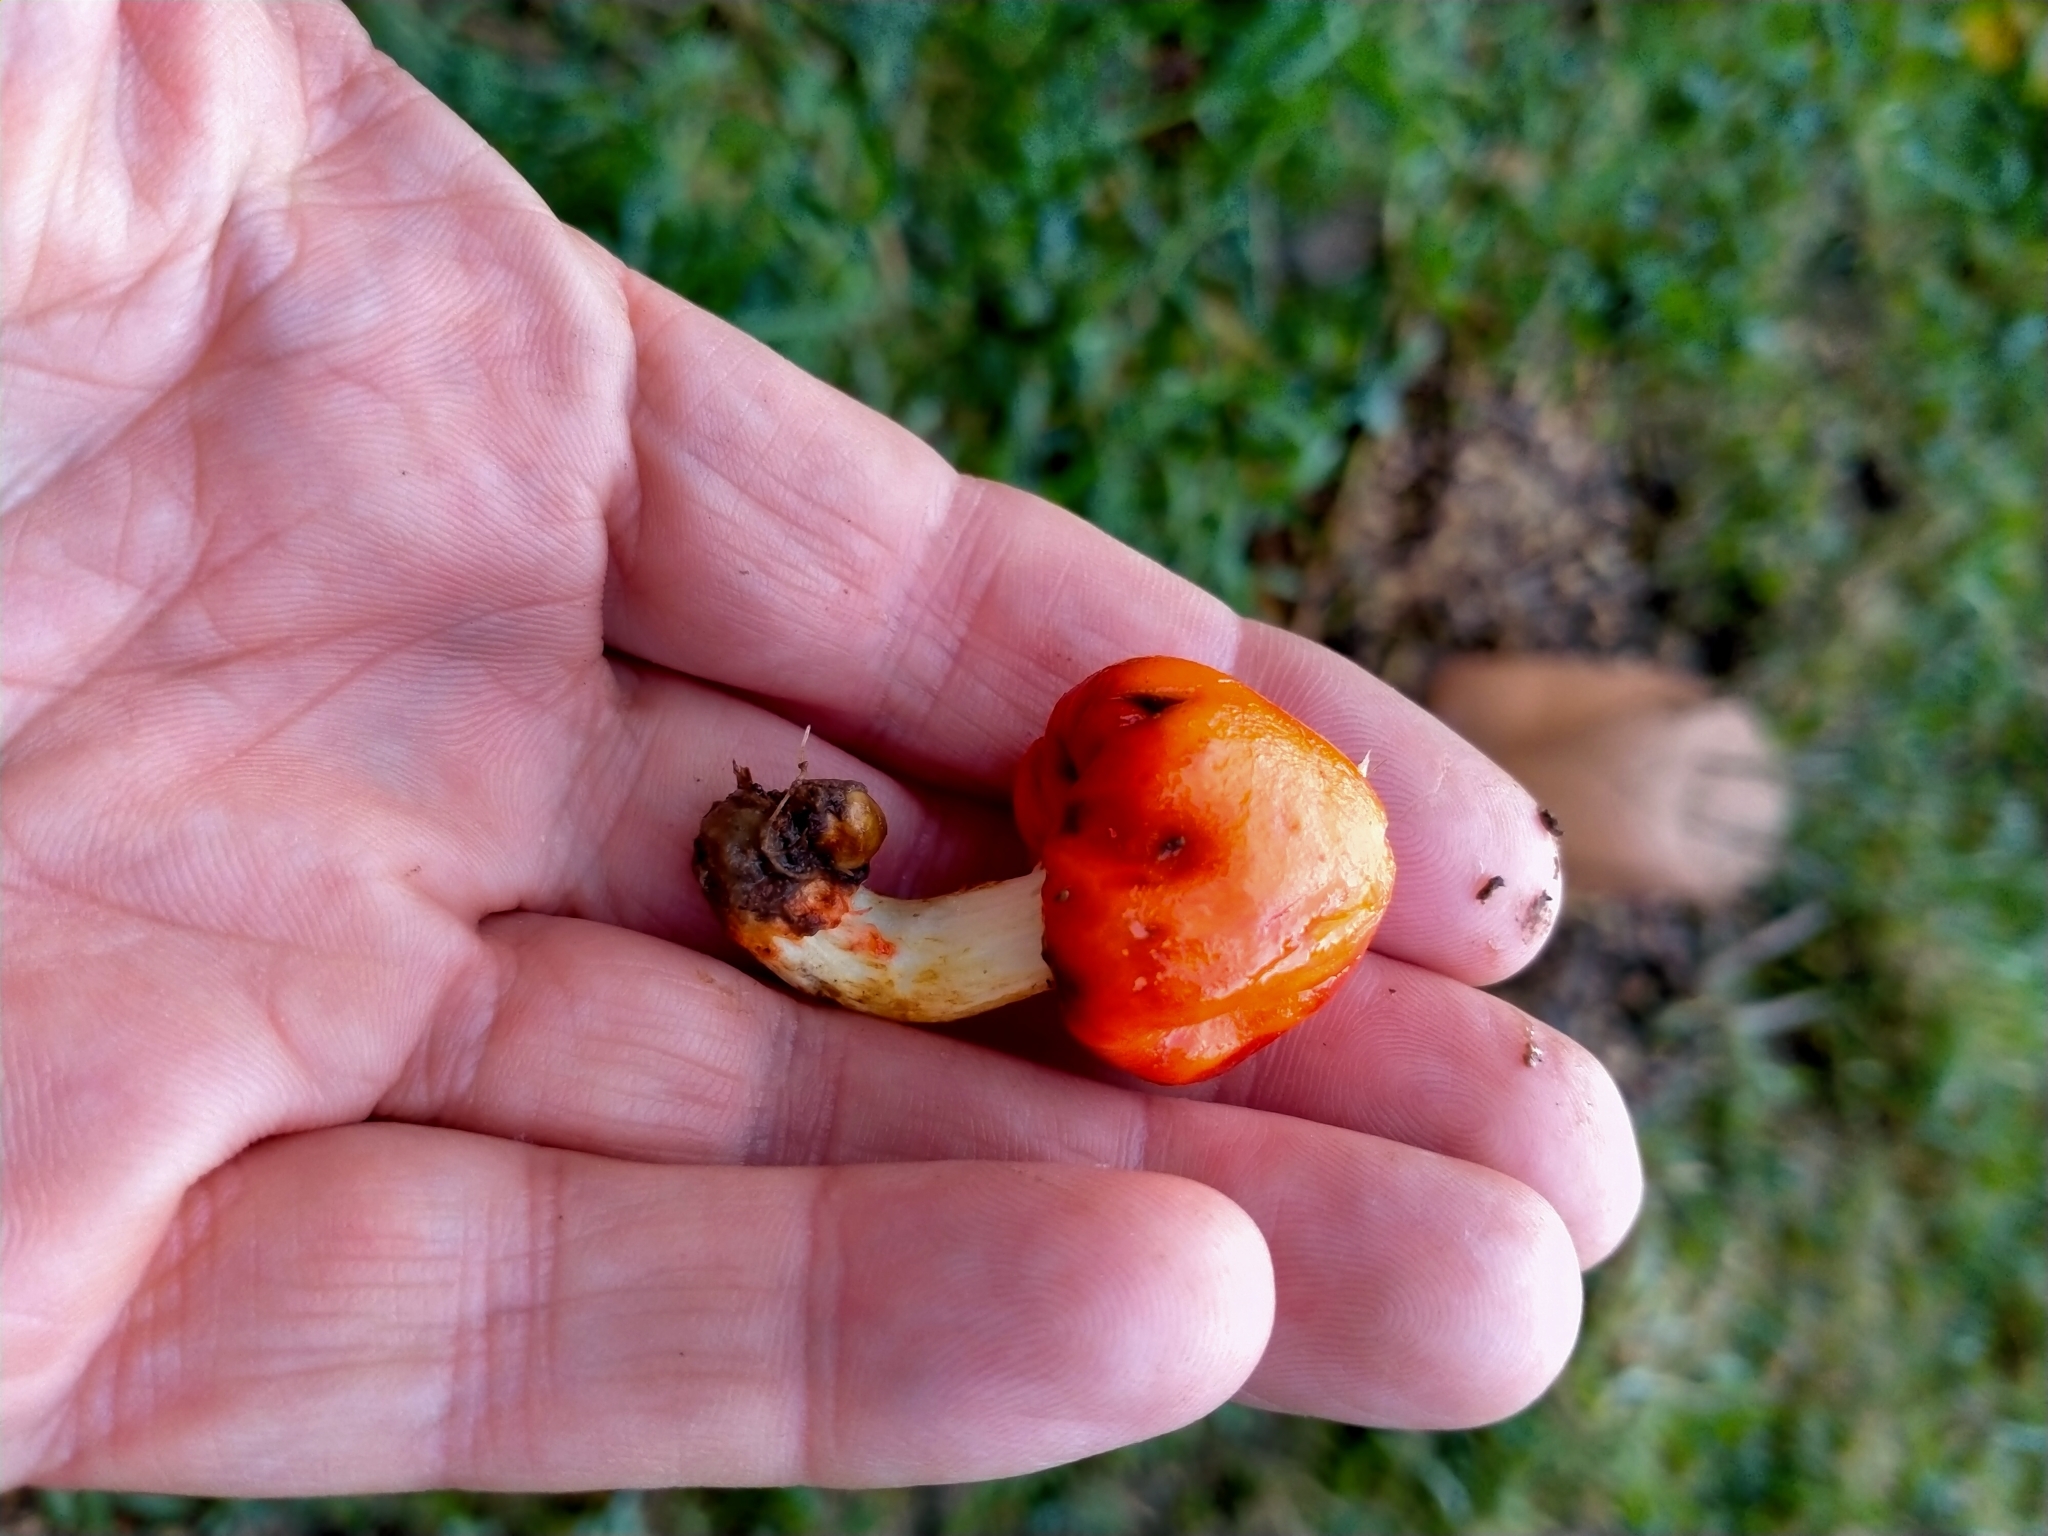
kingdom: Fungi
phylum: Basidiomycota
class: Agaricomycetes
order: Agaricales
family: Strophariaceae
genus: Leratiomyces
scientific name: Leratiomyces erythrocephalus
